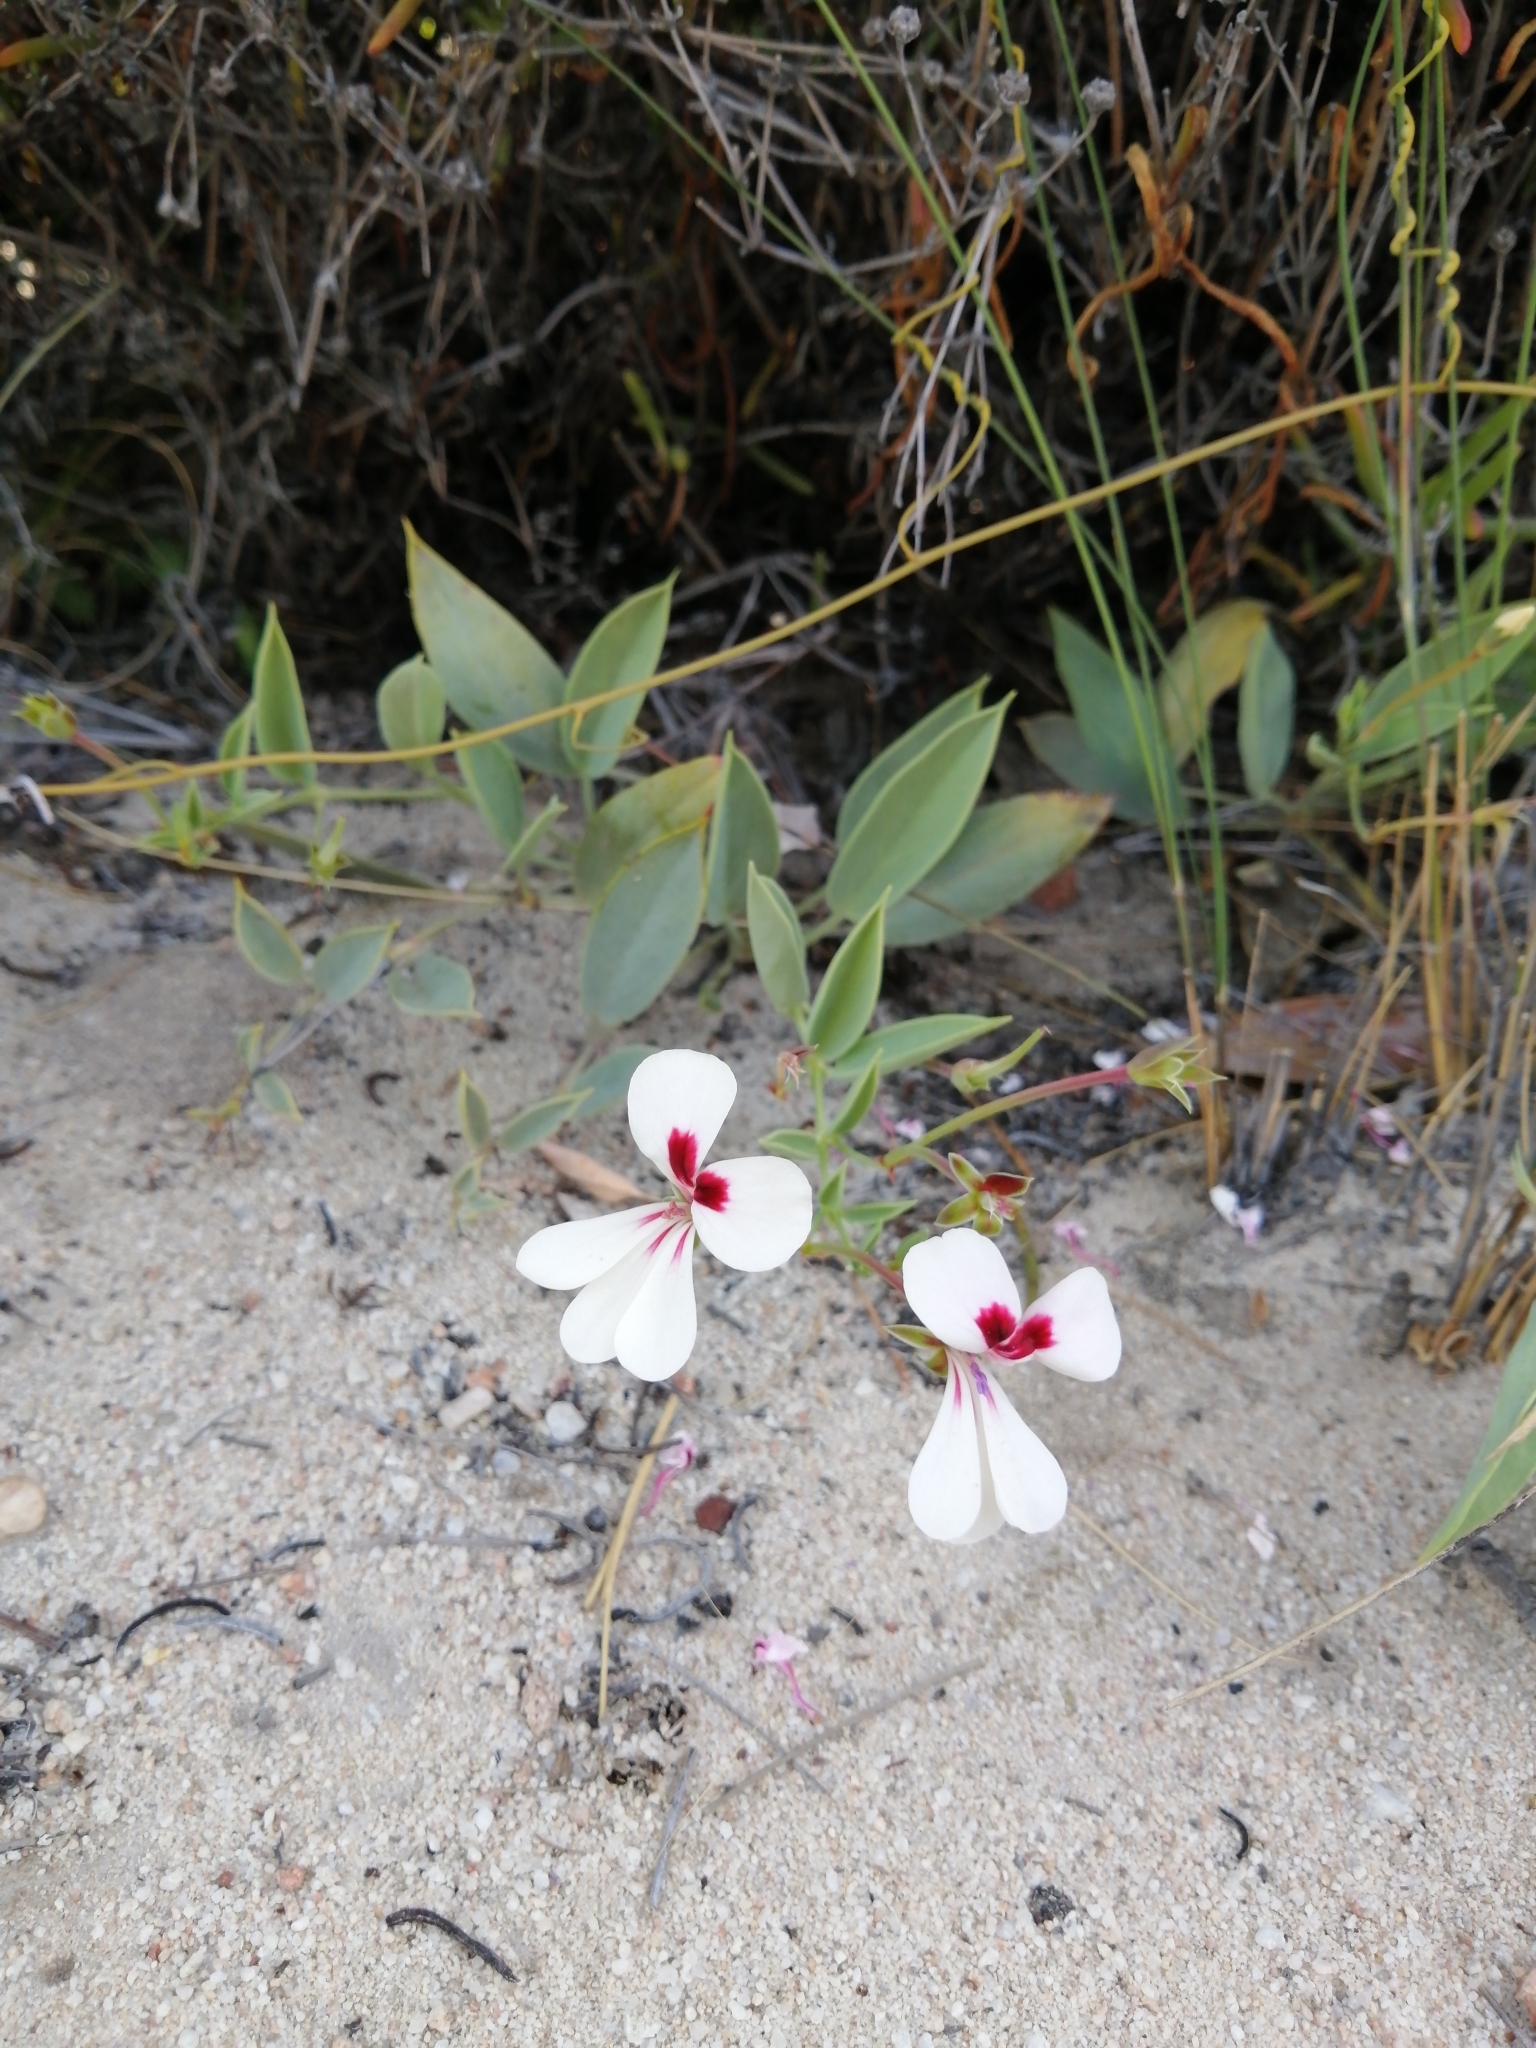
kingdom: Plantae
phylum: Tracheophyta
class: Magnoliopsida
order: Geraniales
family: Geraniaceae
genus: Pelargonium
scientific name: Pelargonium lanceolatum
